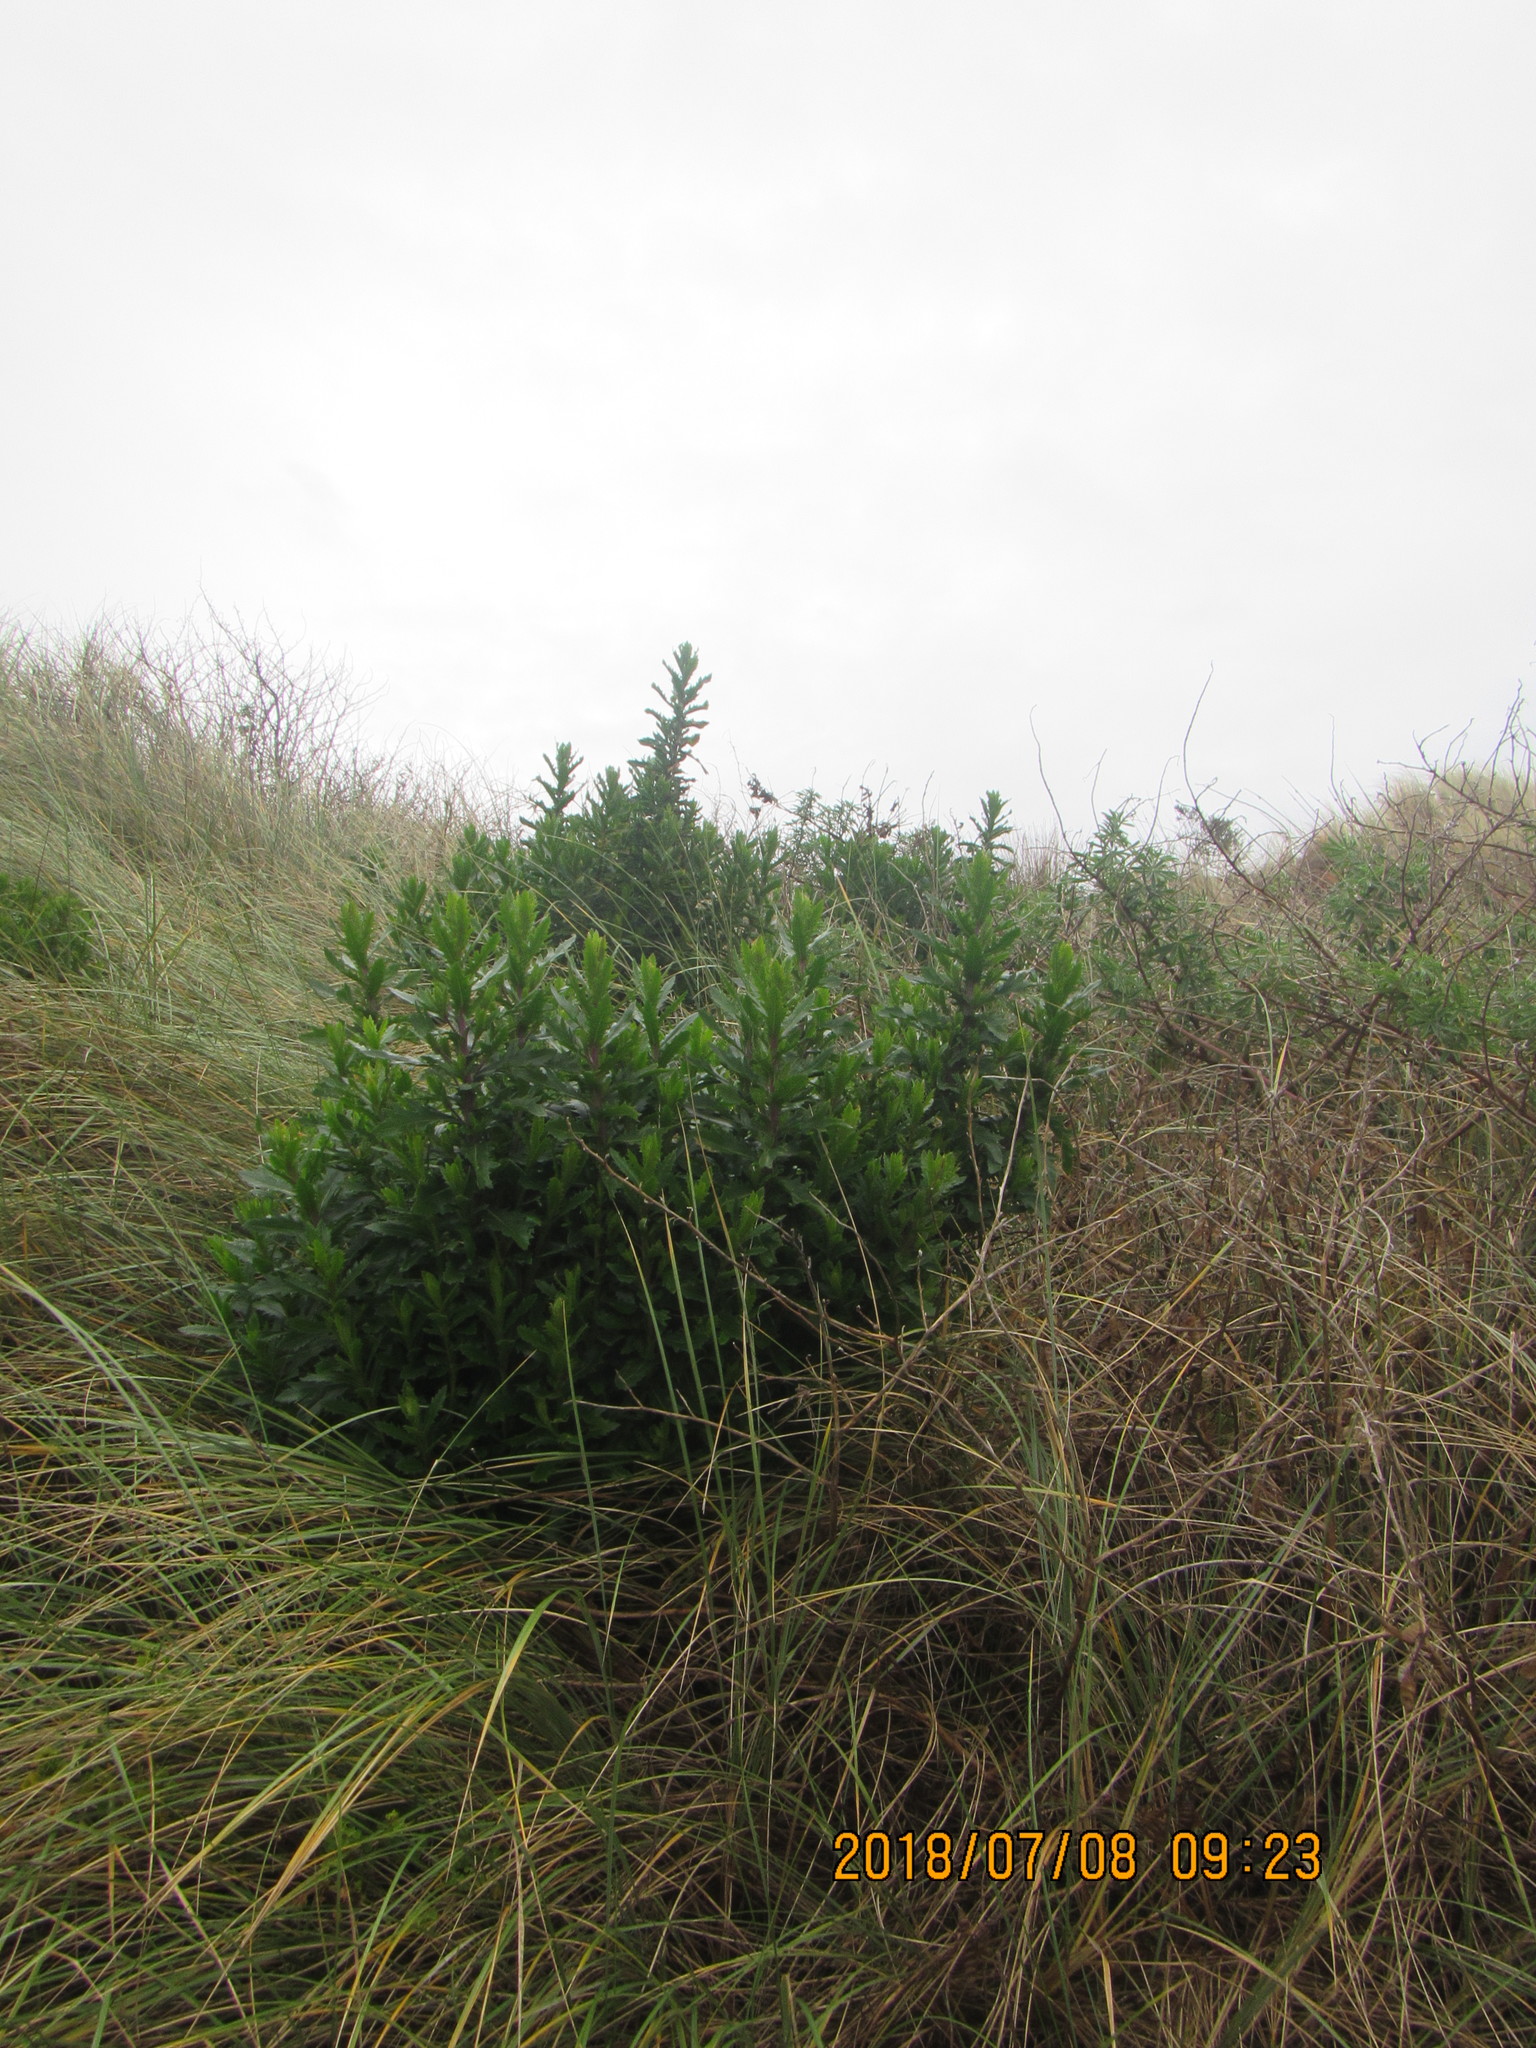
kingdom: Plantae
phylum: Tracheophyta
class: Magnoliopsida
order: Asterales
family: Asteraceae
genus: Senecio
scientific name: Senecio glastifolius
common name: Woad-leaved ragwort
